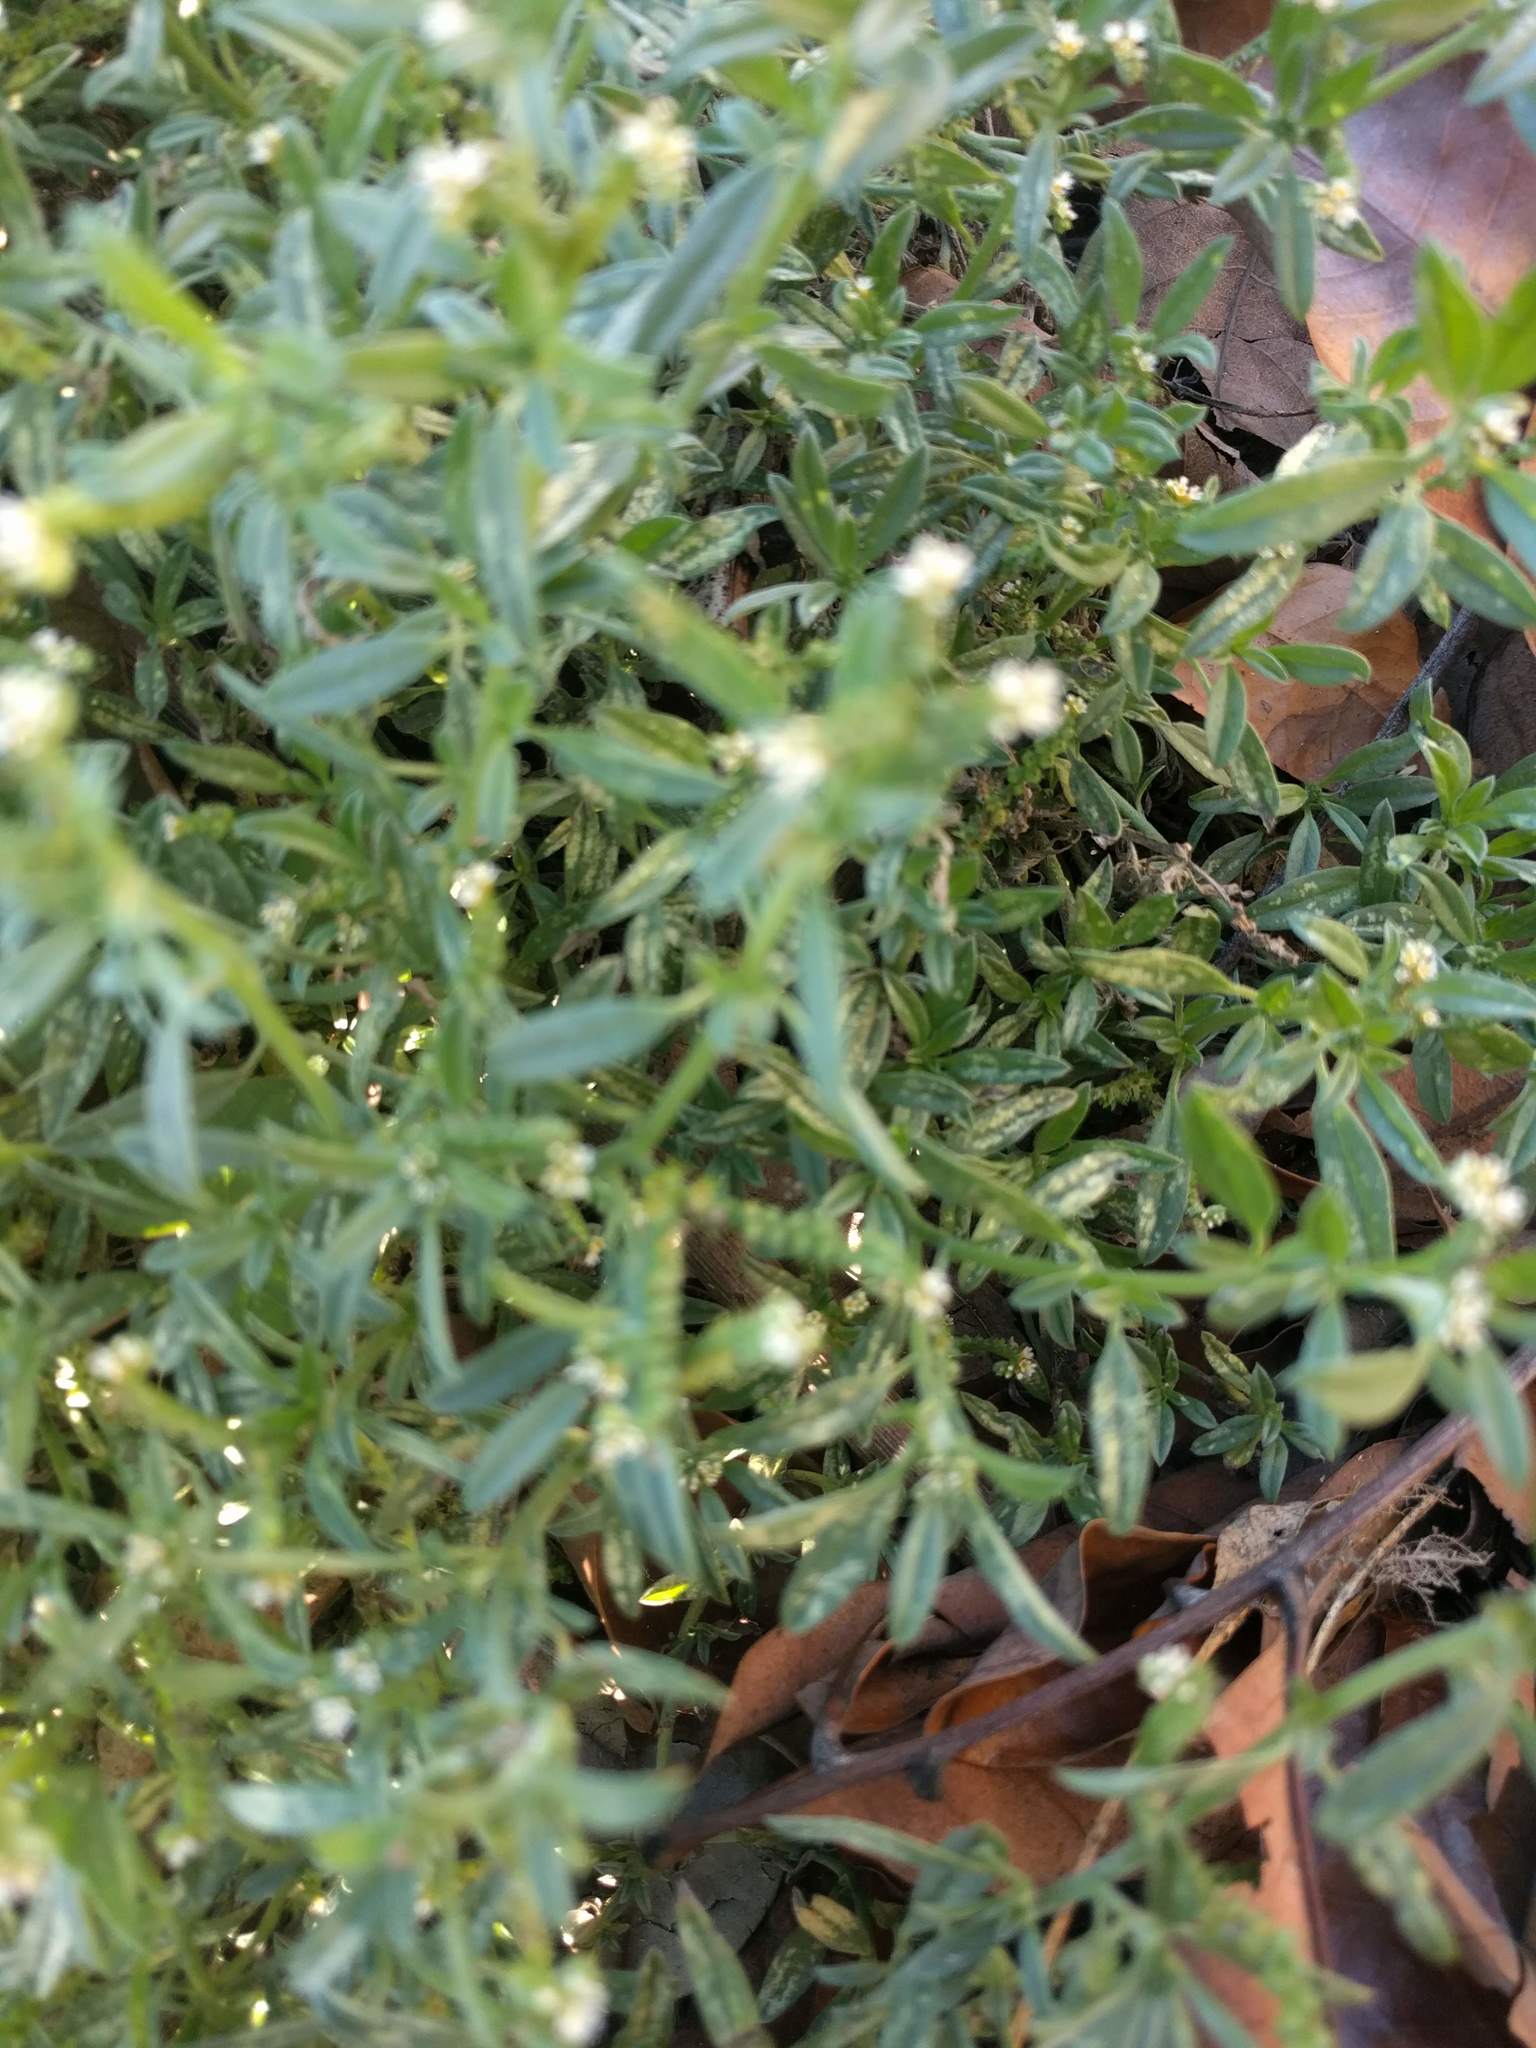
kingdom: Plantae
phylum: Tracheophyta
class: Magnoliopsida
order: Boraginales
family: Heliotropiaceae
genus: Euploca
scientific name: Euploca procumbens
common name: Fourspike heliotrope
